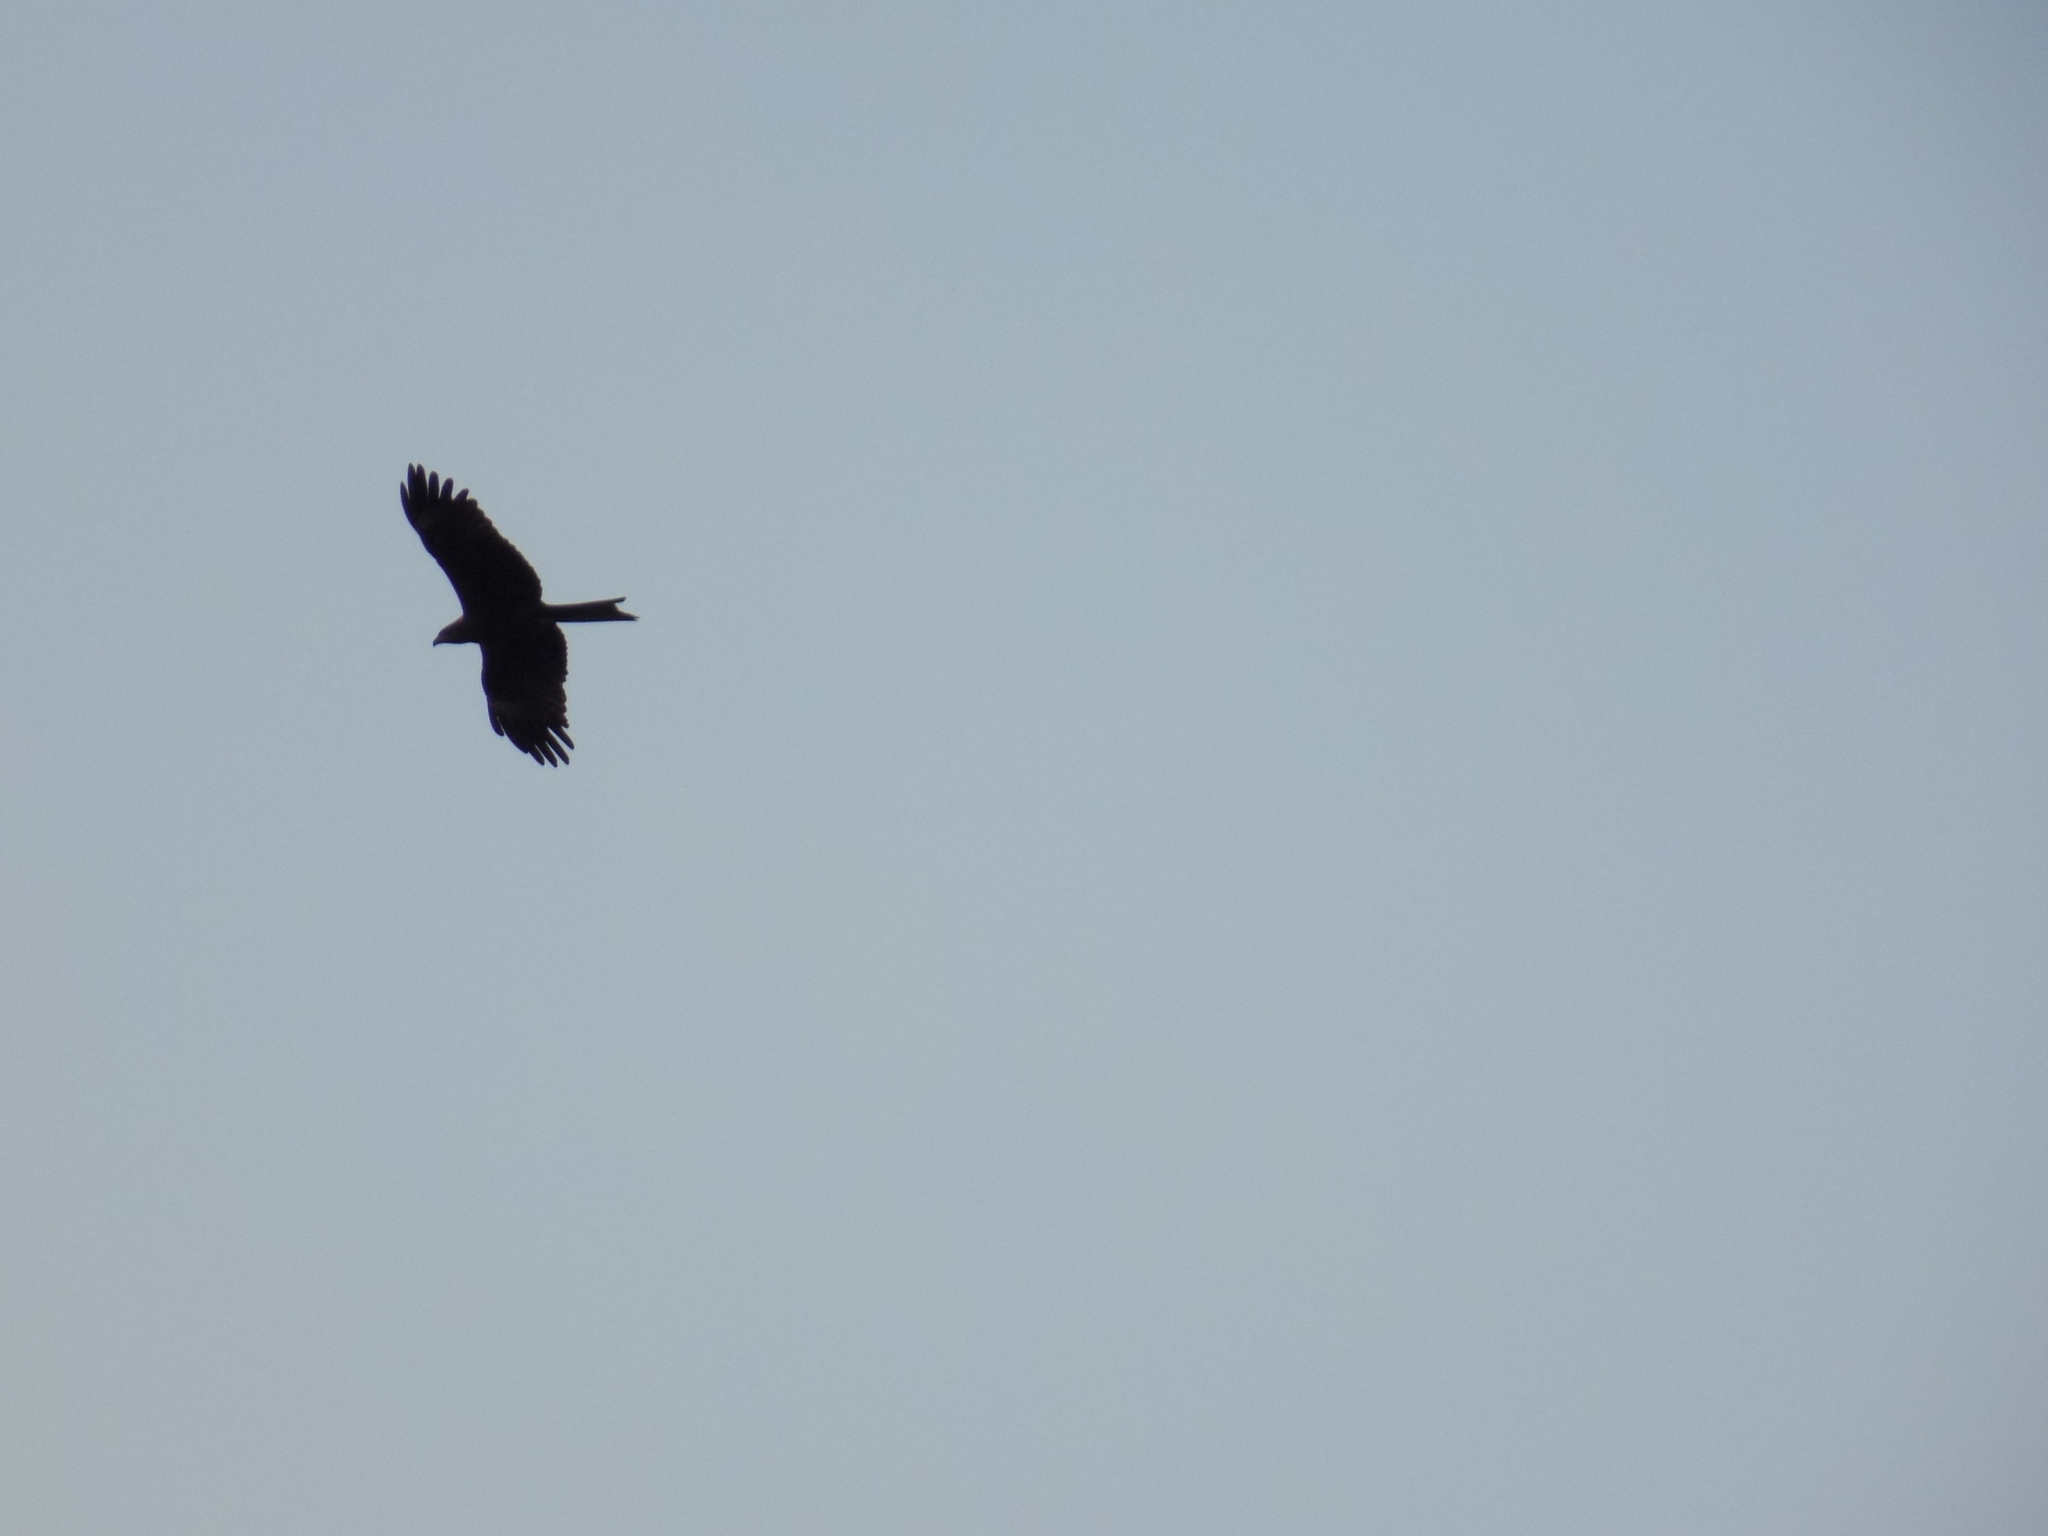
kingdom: Animalia
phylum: Chordata
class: Aves
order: Accipitriformes
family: Accipitridae
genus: Milvus
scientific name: Milvus migrans
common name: Black kite
